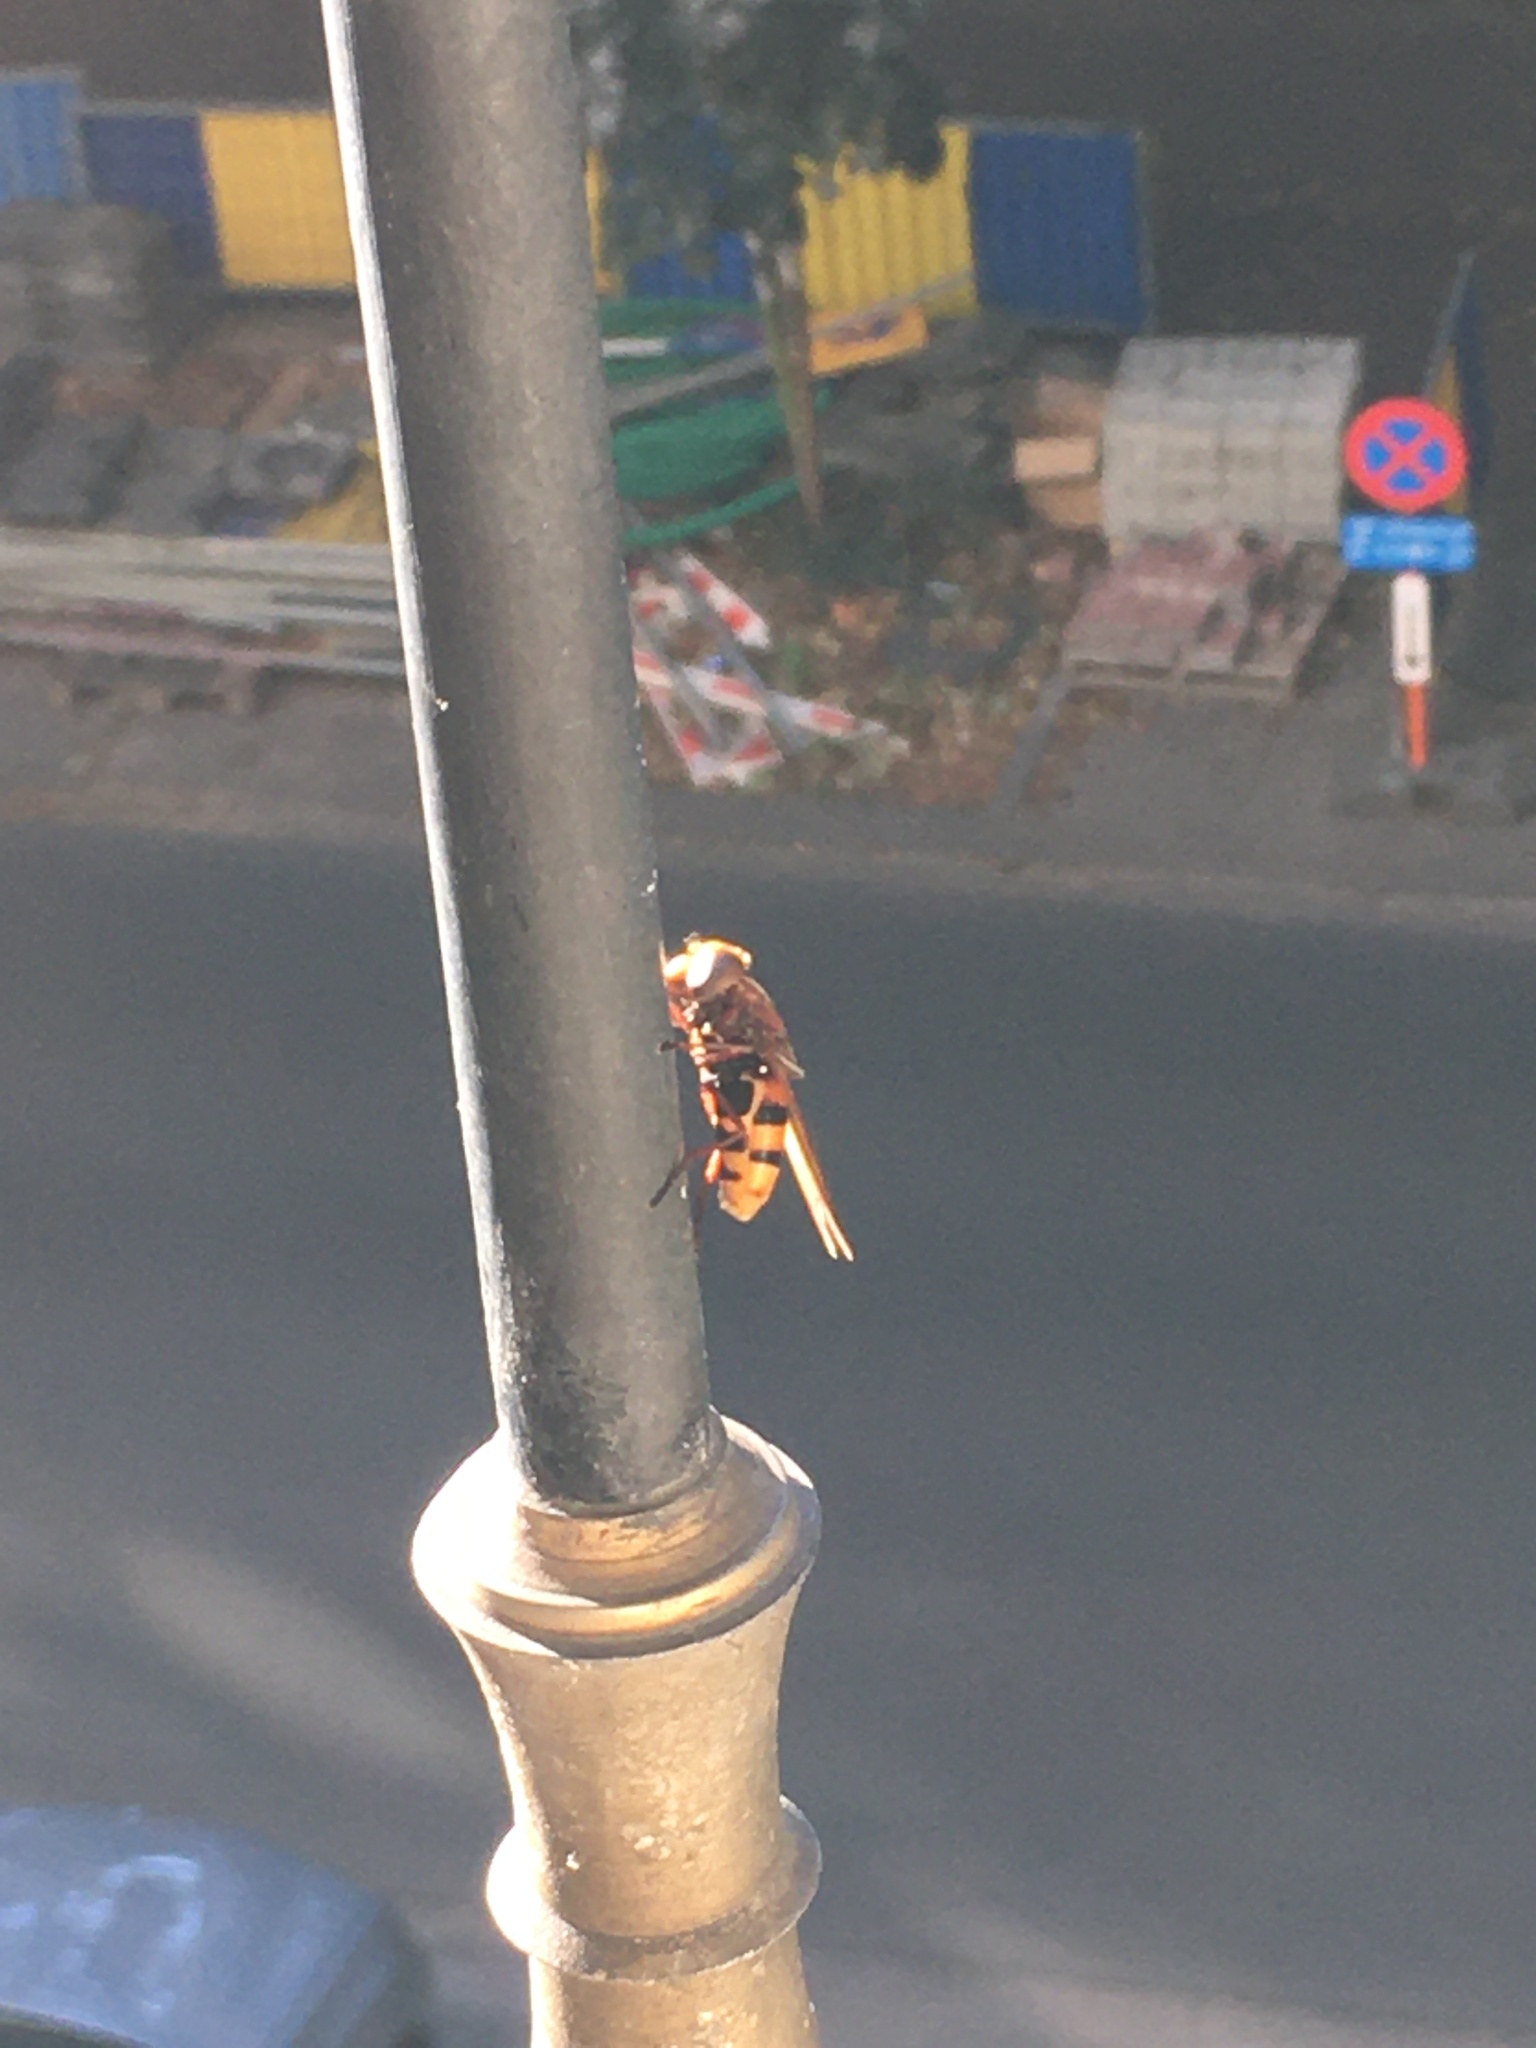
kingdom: Animalia
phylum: Arthropoda
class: Insecta
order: Diptera
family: Syrphidae
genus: Volucella
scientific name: Volucella zonaria
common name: Hornet hoverfly
